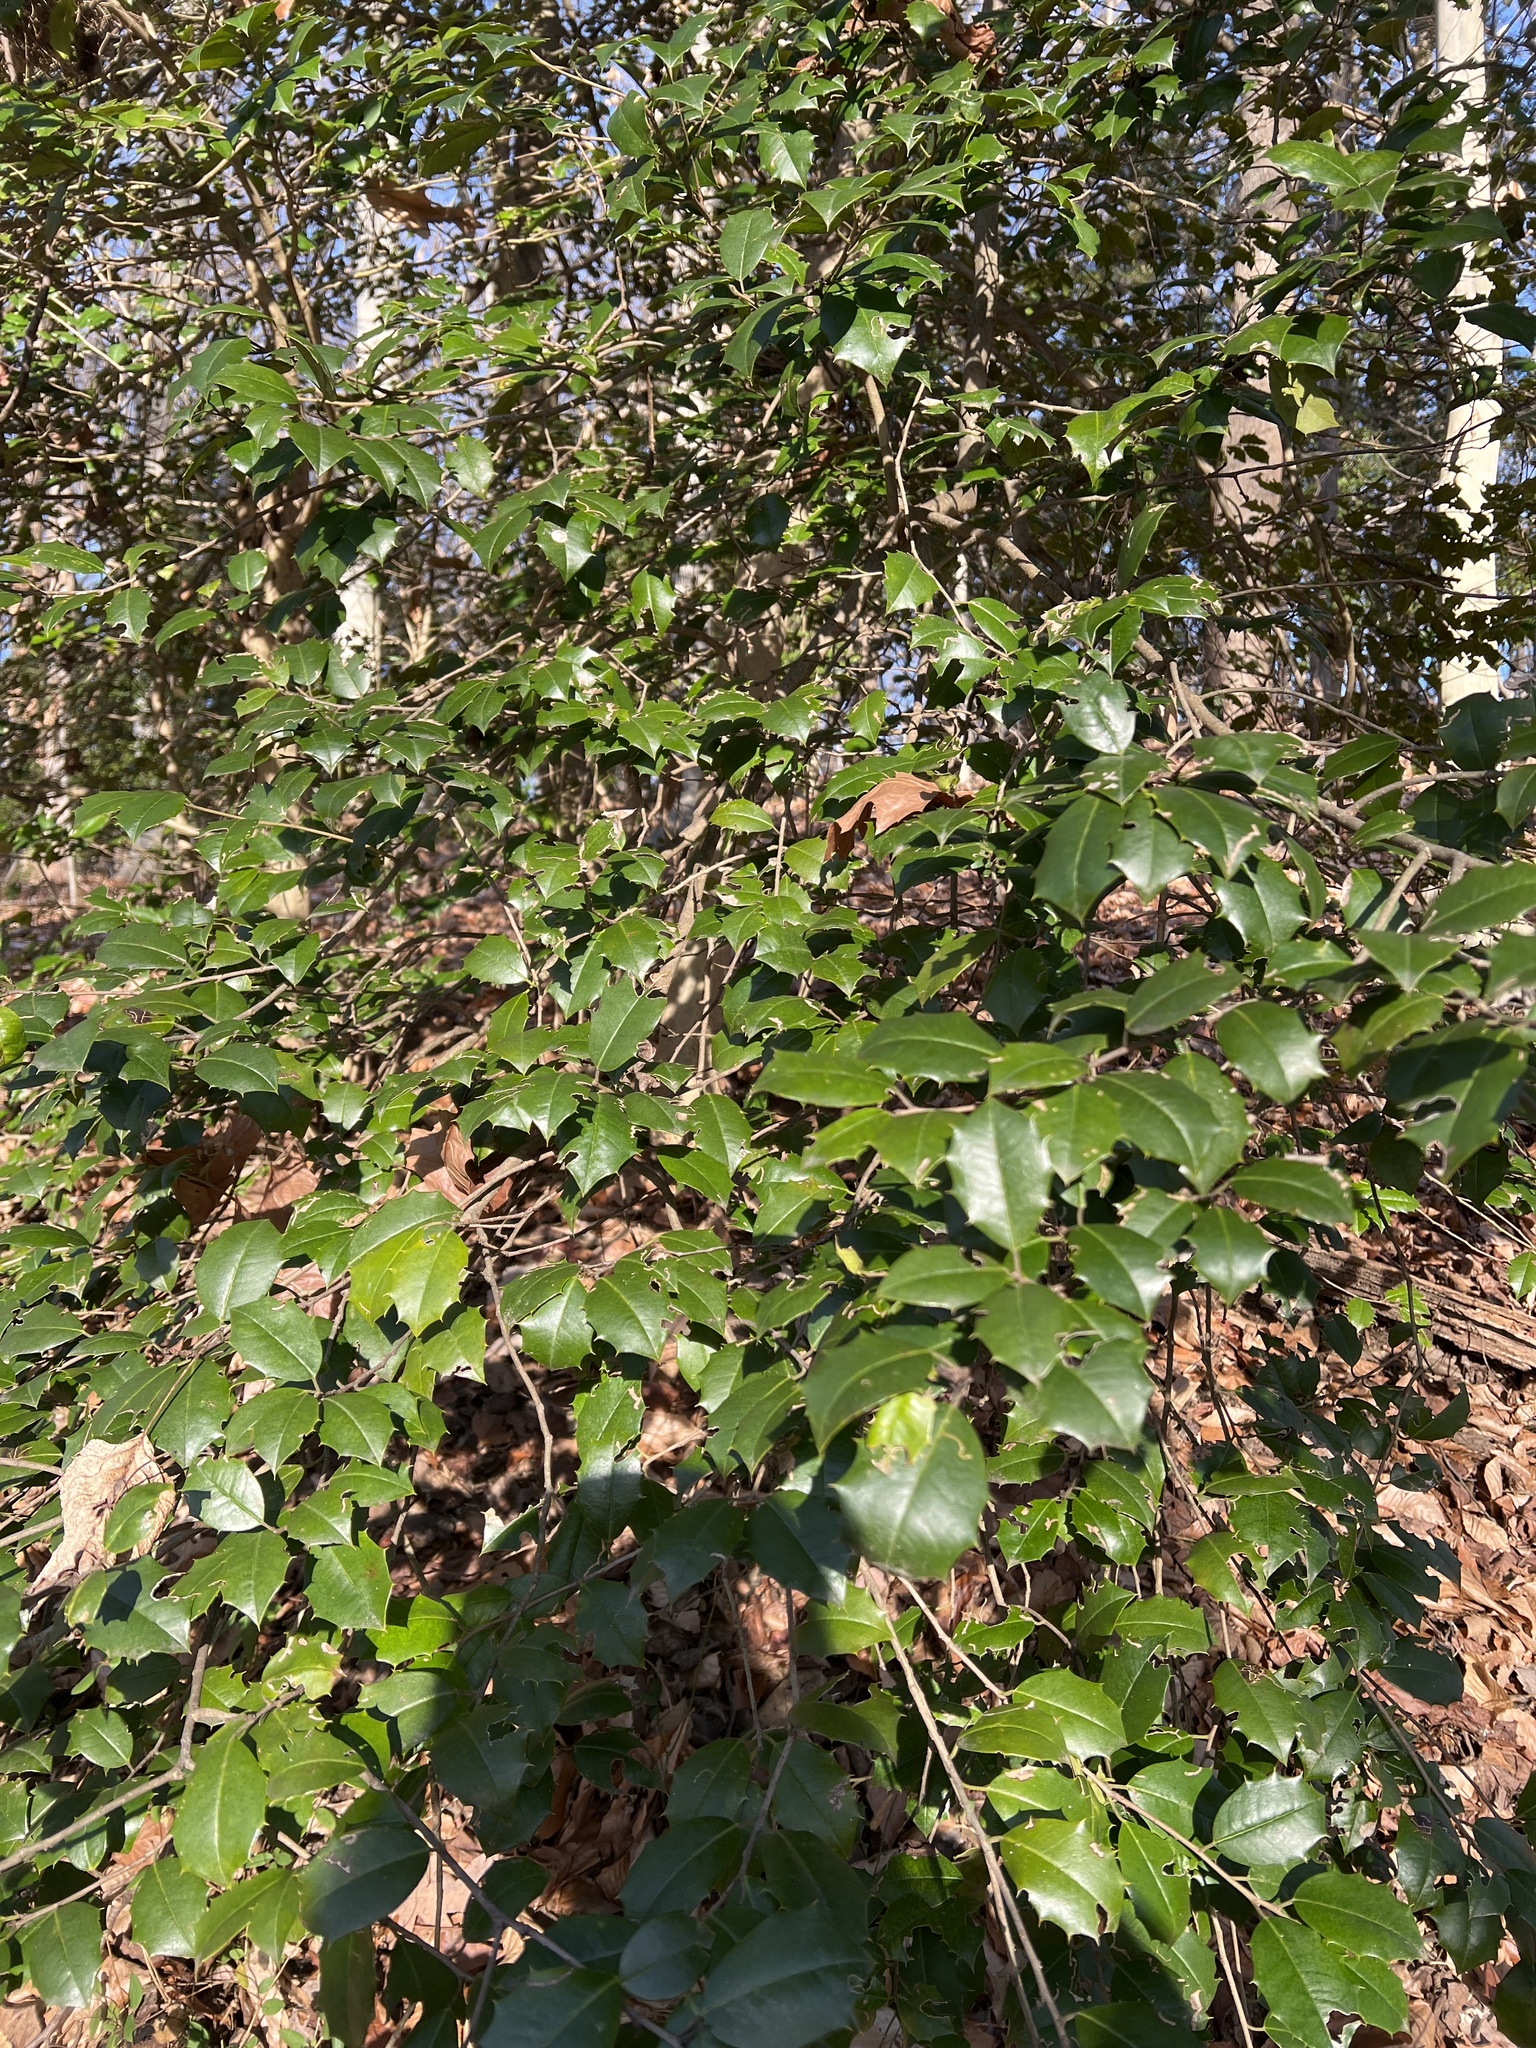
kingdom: Plantae
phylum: Tracheophyta
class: Magnoliopsida
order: Aquifoliales
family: Aquifoliaceae
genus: Ilex
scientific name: Ilex opaca
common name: American holly
